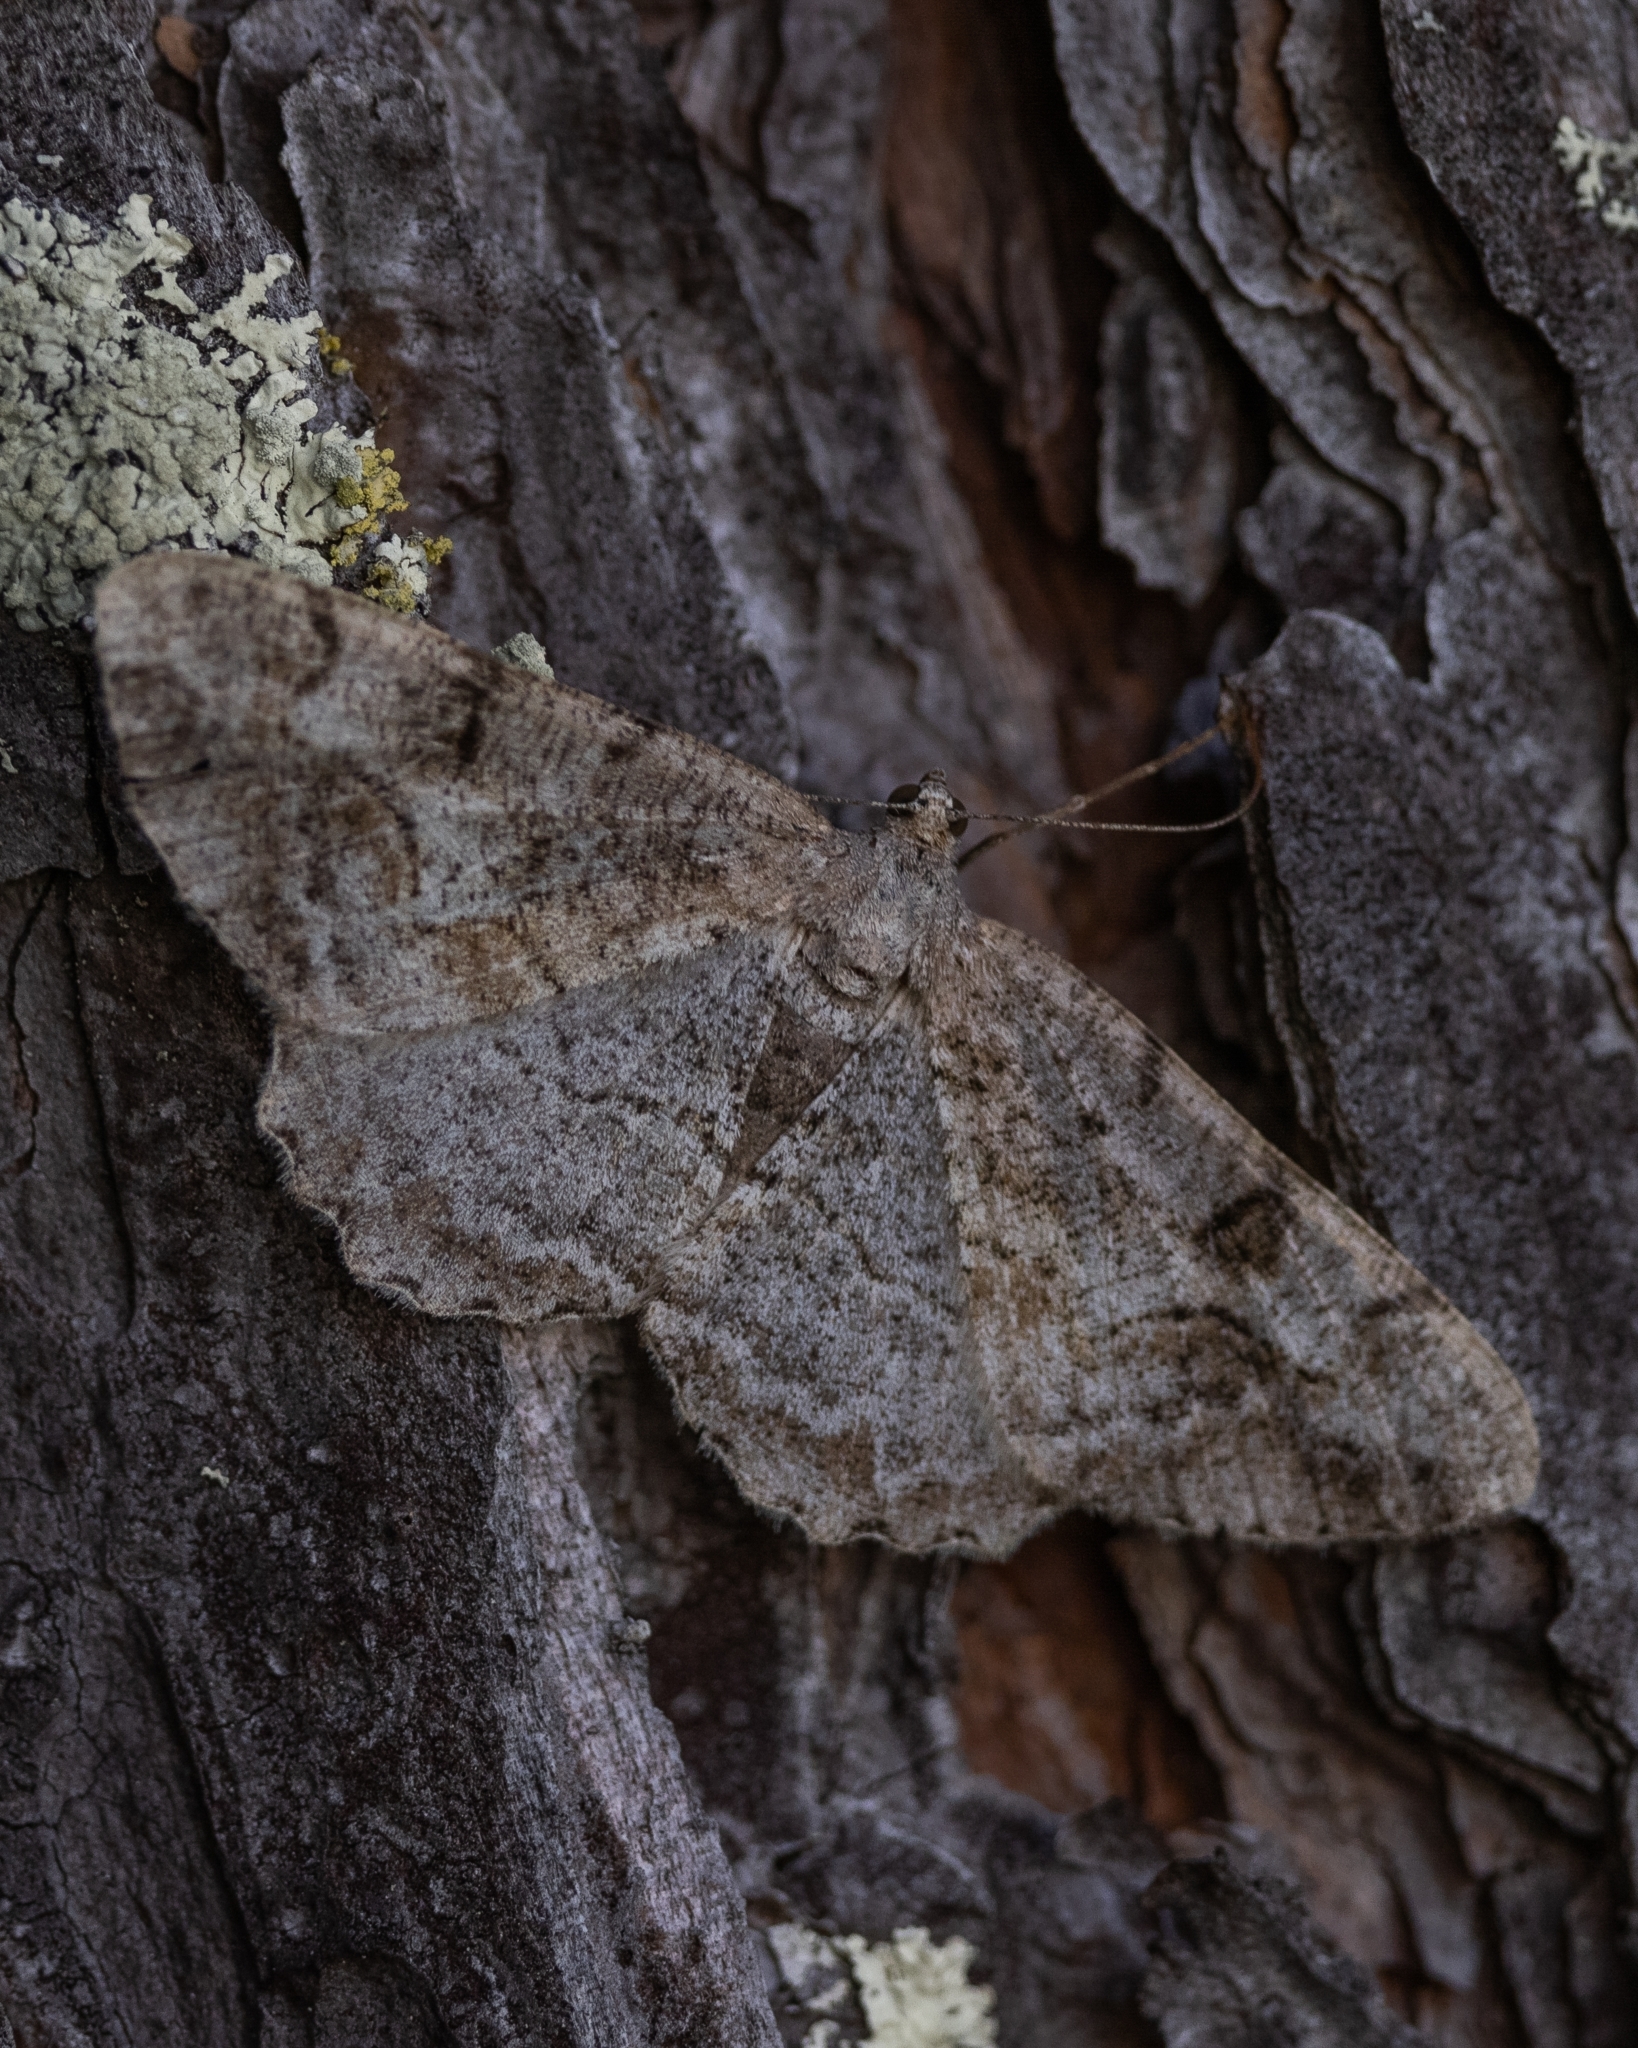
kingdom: Animalia
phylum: Arthropoda
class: Insecta
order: Lepidoptera
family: Geometridae
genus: Alcis
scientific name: Alcis repandata
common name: Mottled beauty
